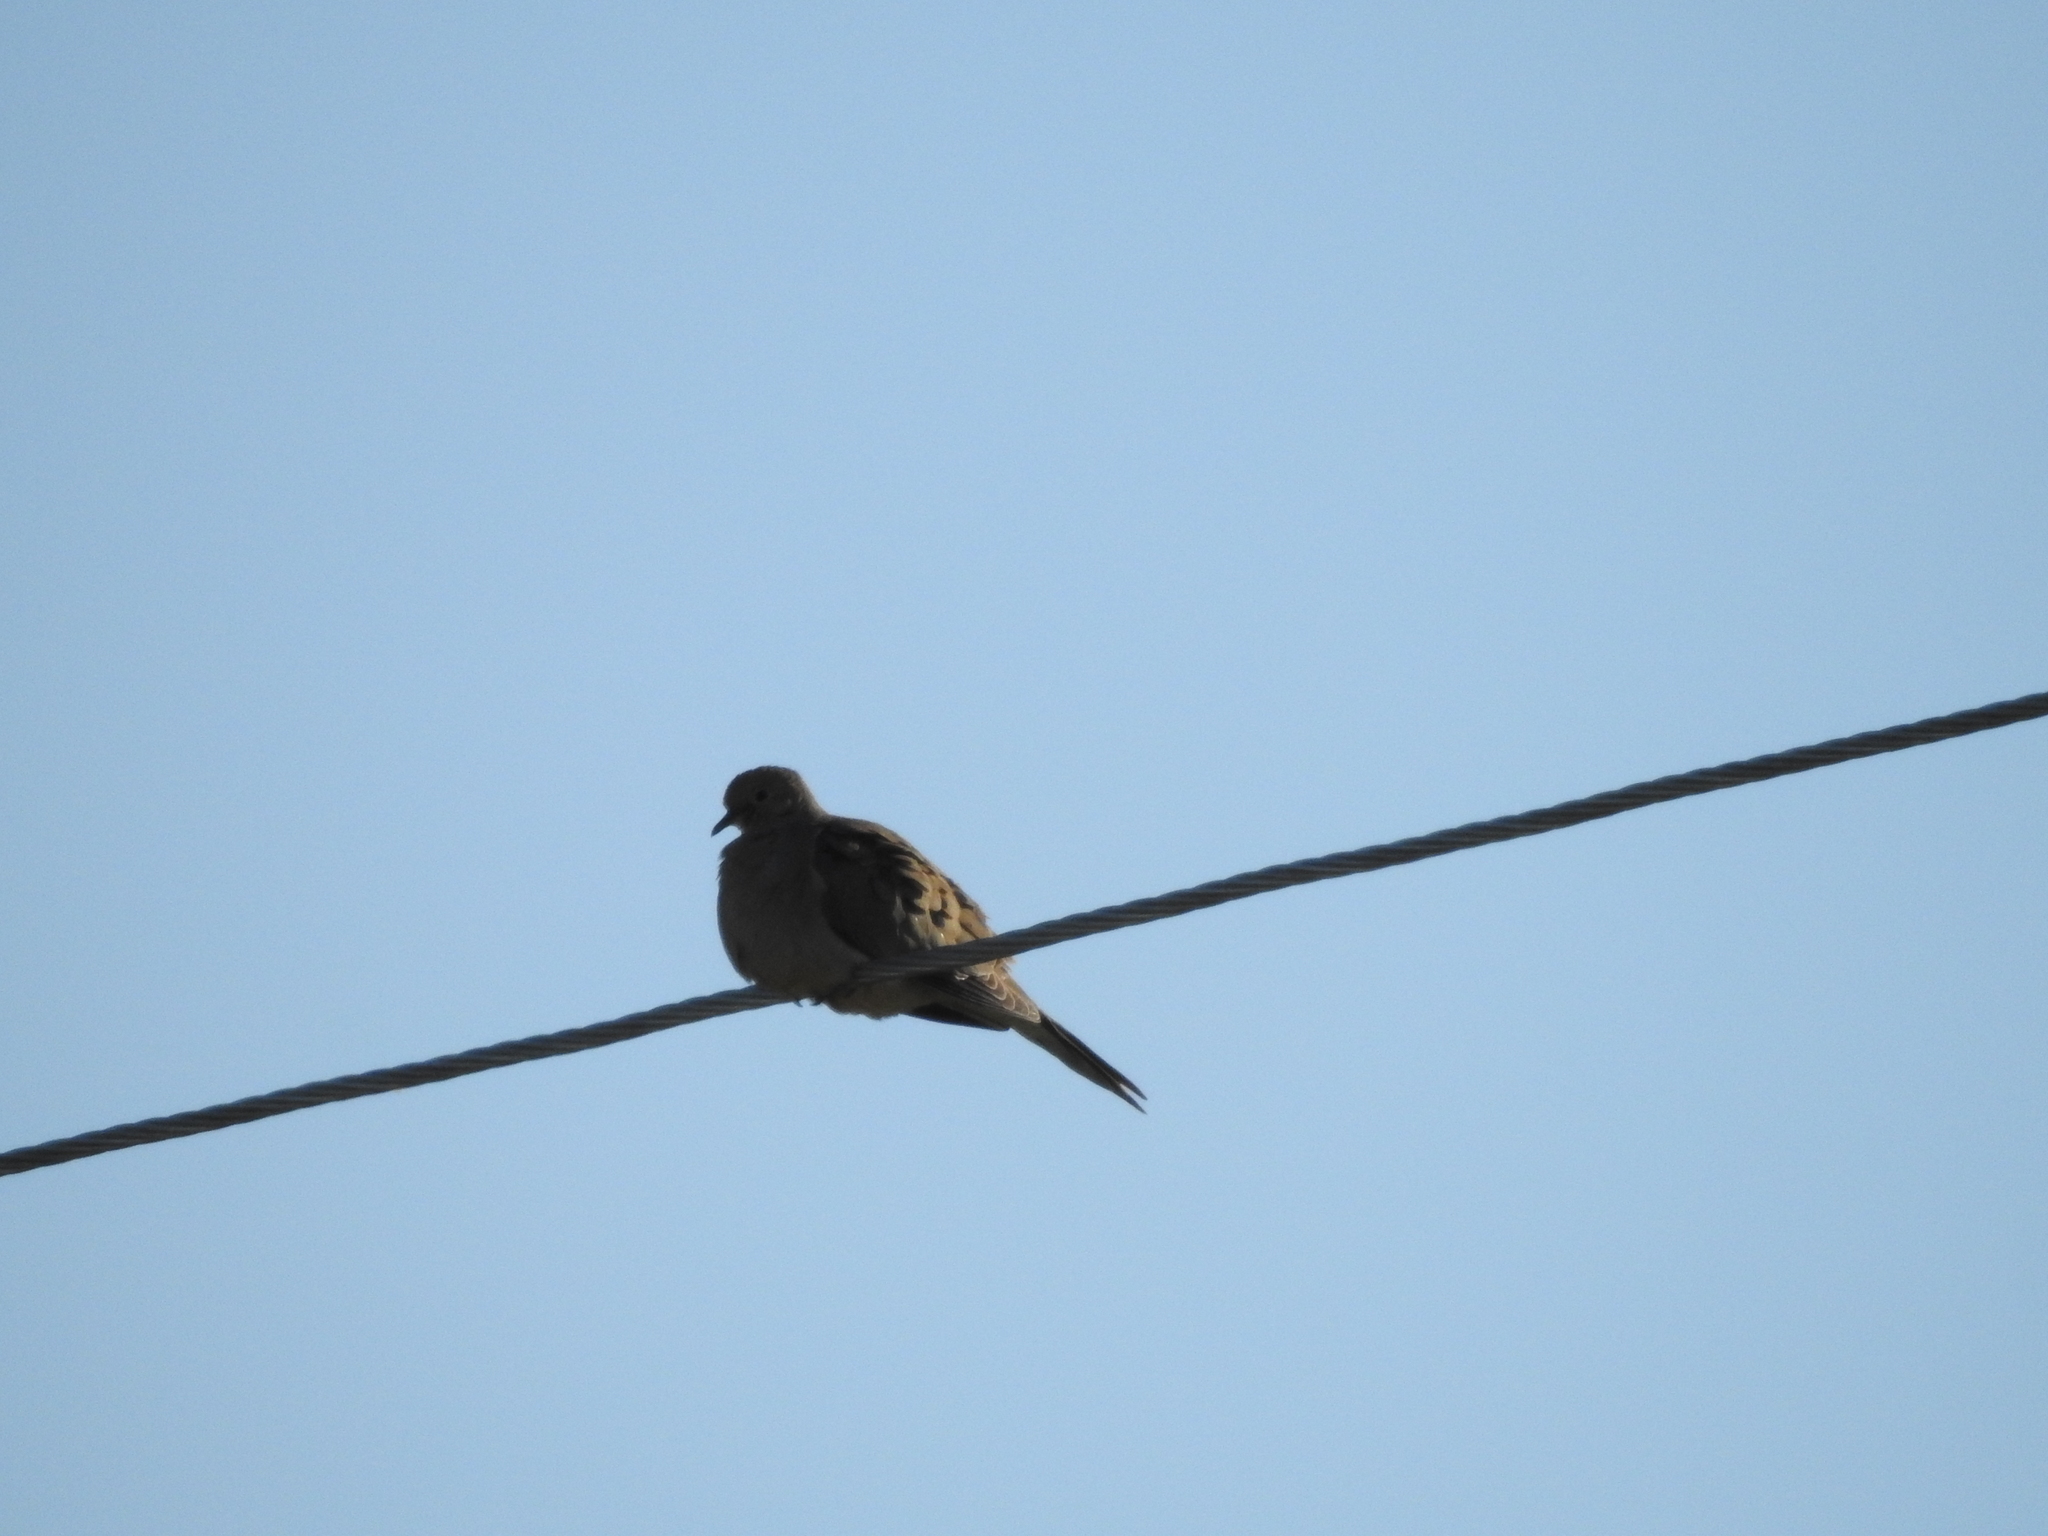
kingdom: Animalia
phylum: Chordata
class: Aves
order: Columbiformes
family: Columbidae
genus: Zenaida
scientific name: Zenaida macroura
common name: Mourning dove
